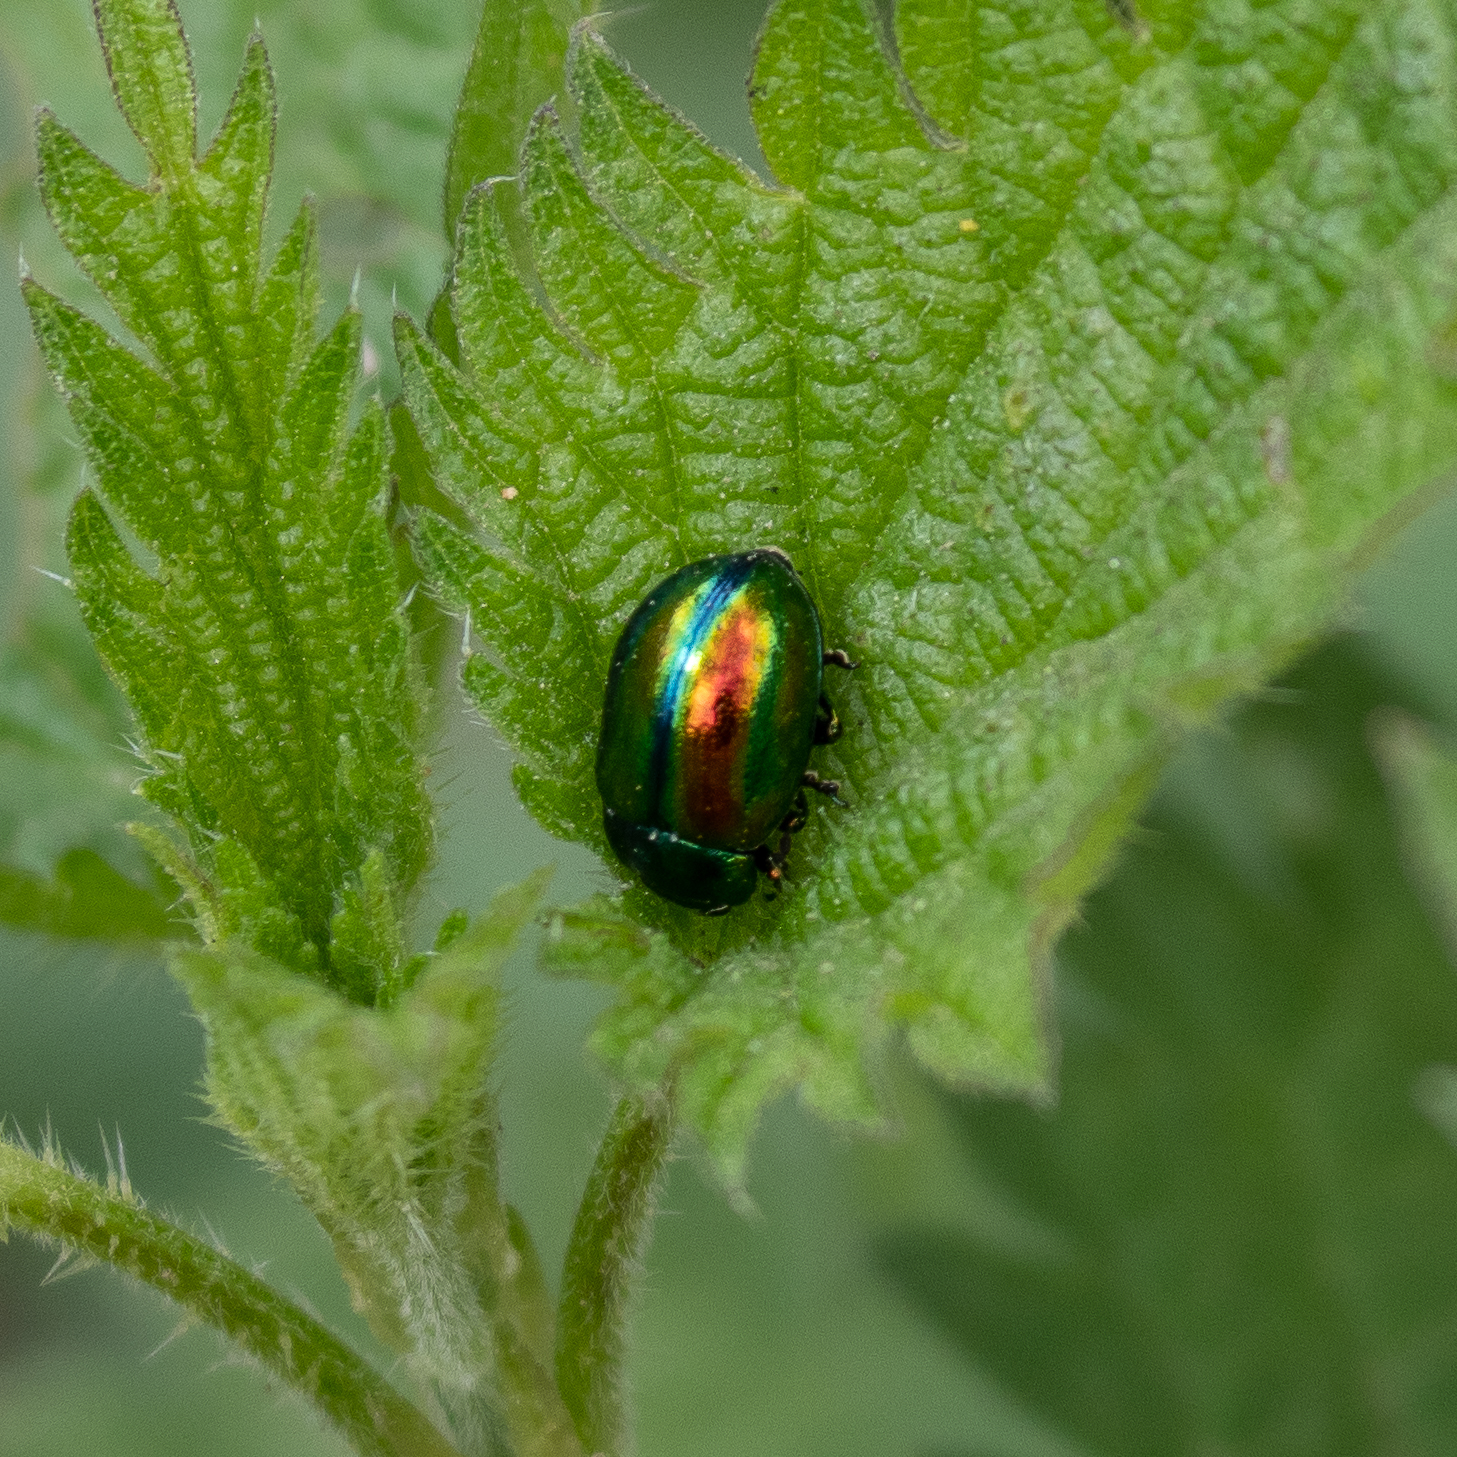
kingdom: Animalia
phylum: Arthropoda
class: Insecta
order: Coleoptera
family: Chrysomelidae
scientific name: Chrysomelidae
